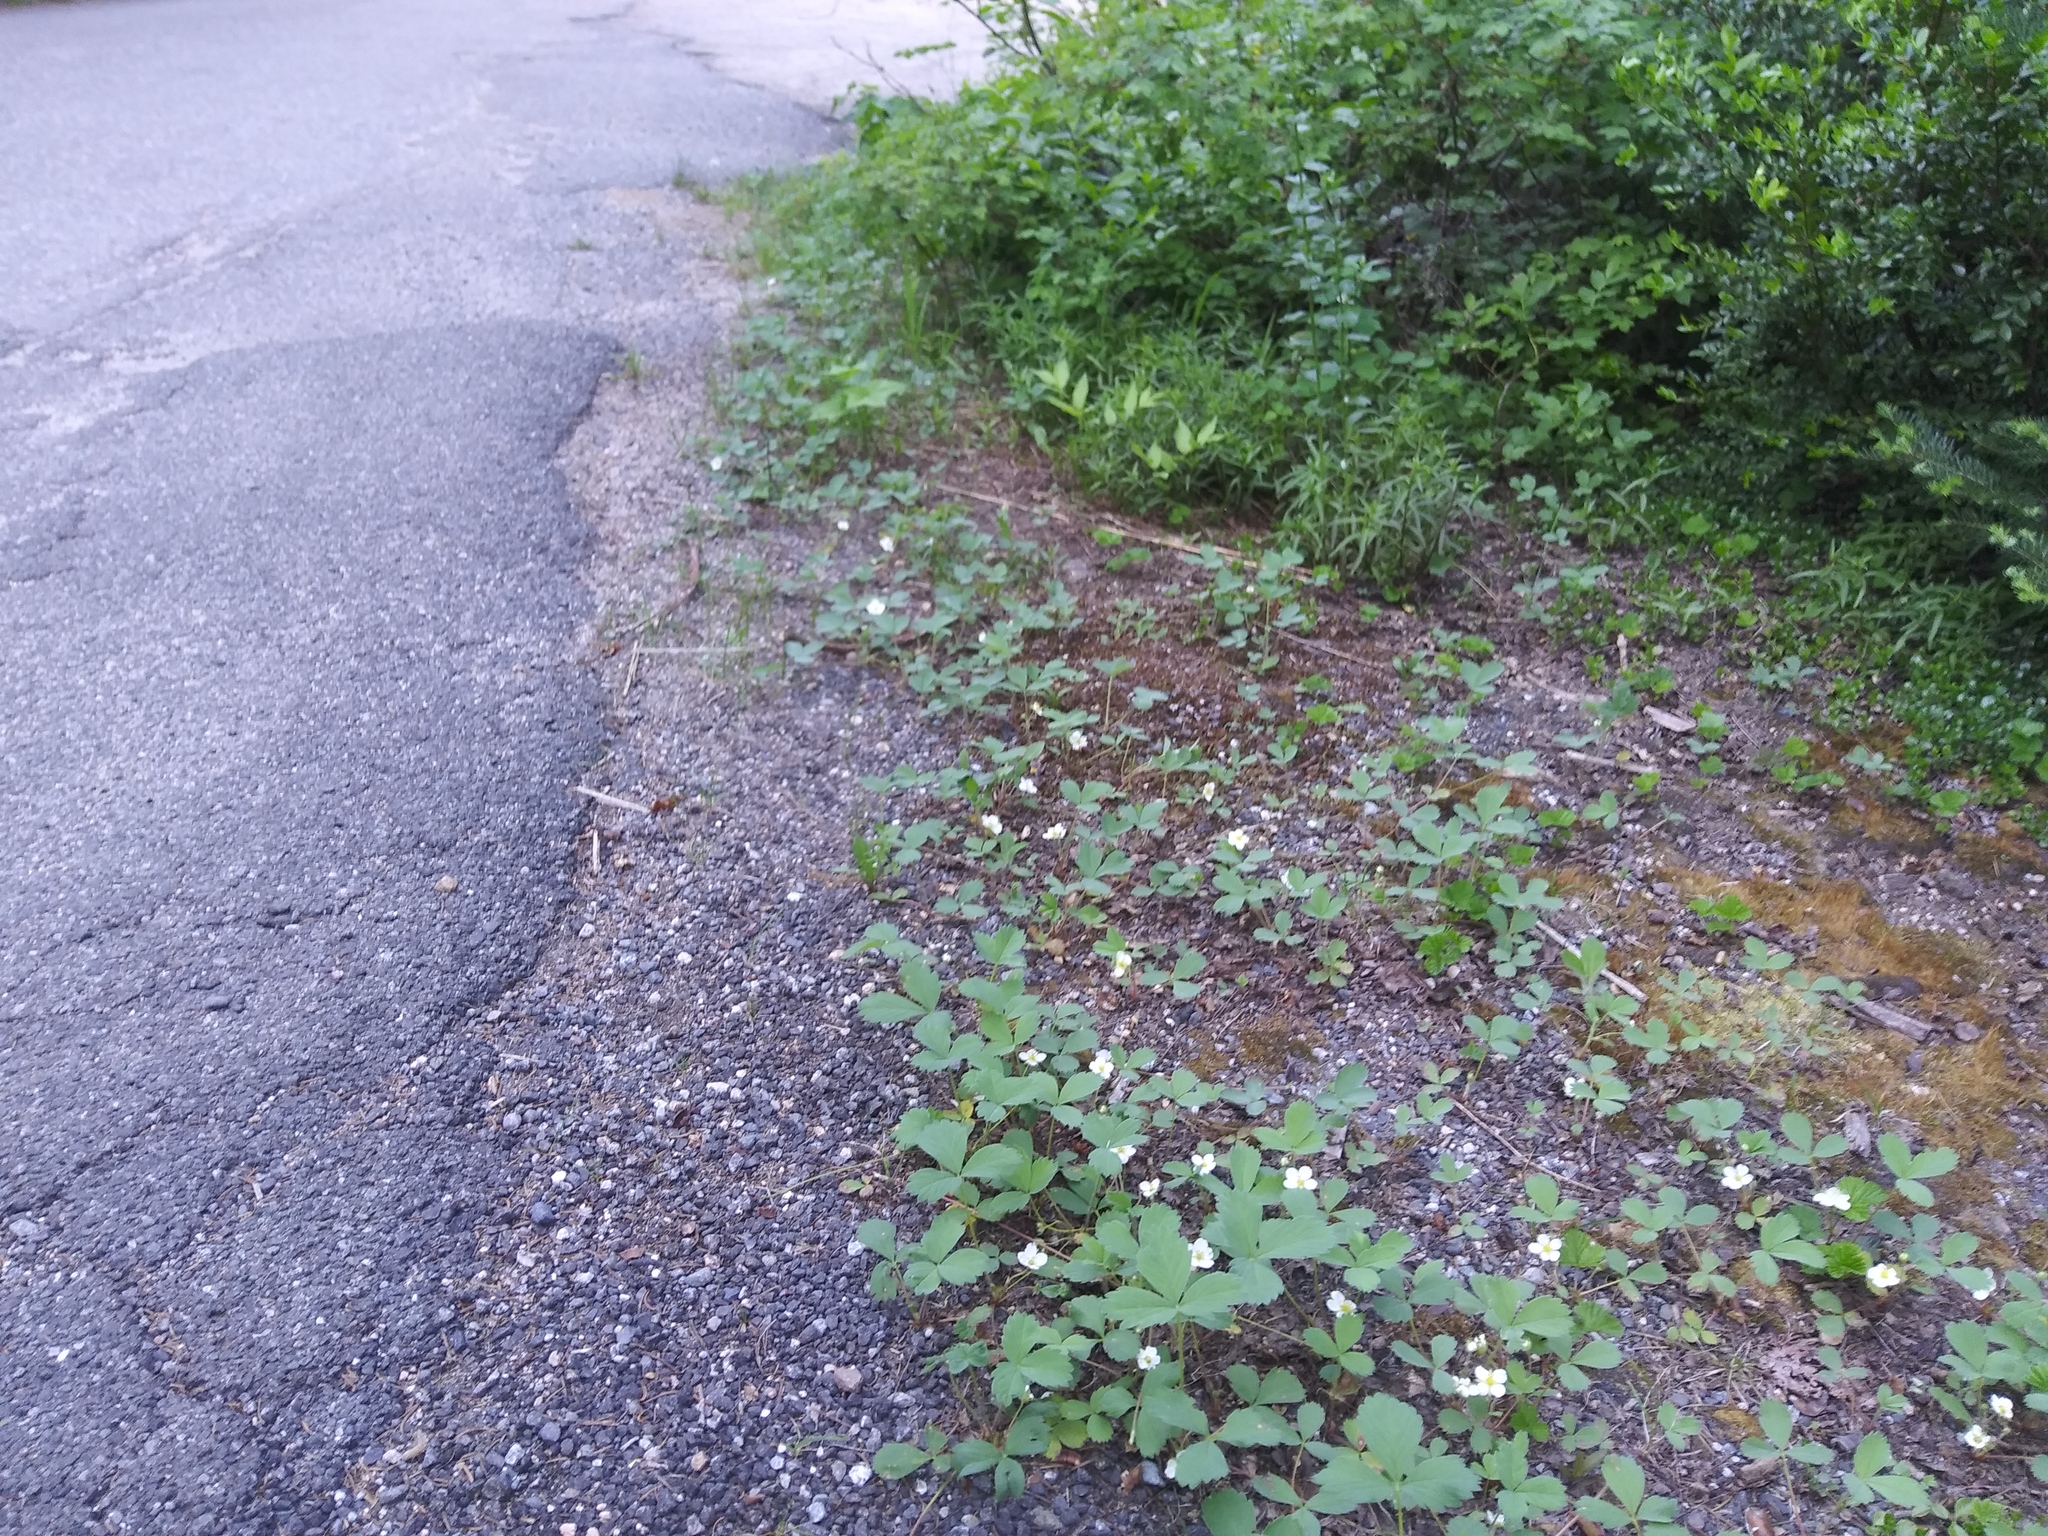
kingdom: Plantae
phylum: Tracheophyta
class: Magnoliopsida
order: Rosales
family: Rosaceae
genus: Fragaria
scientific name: Fragaria virginiana
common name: Thickleaved wild strawberry
